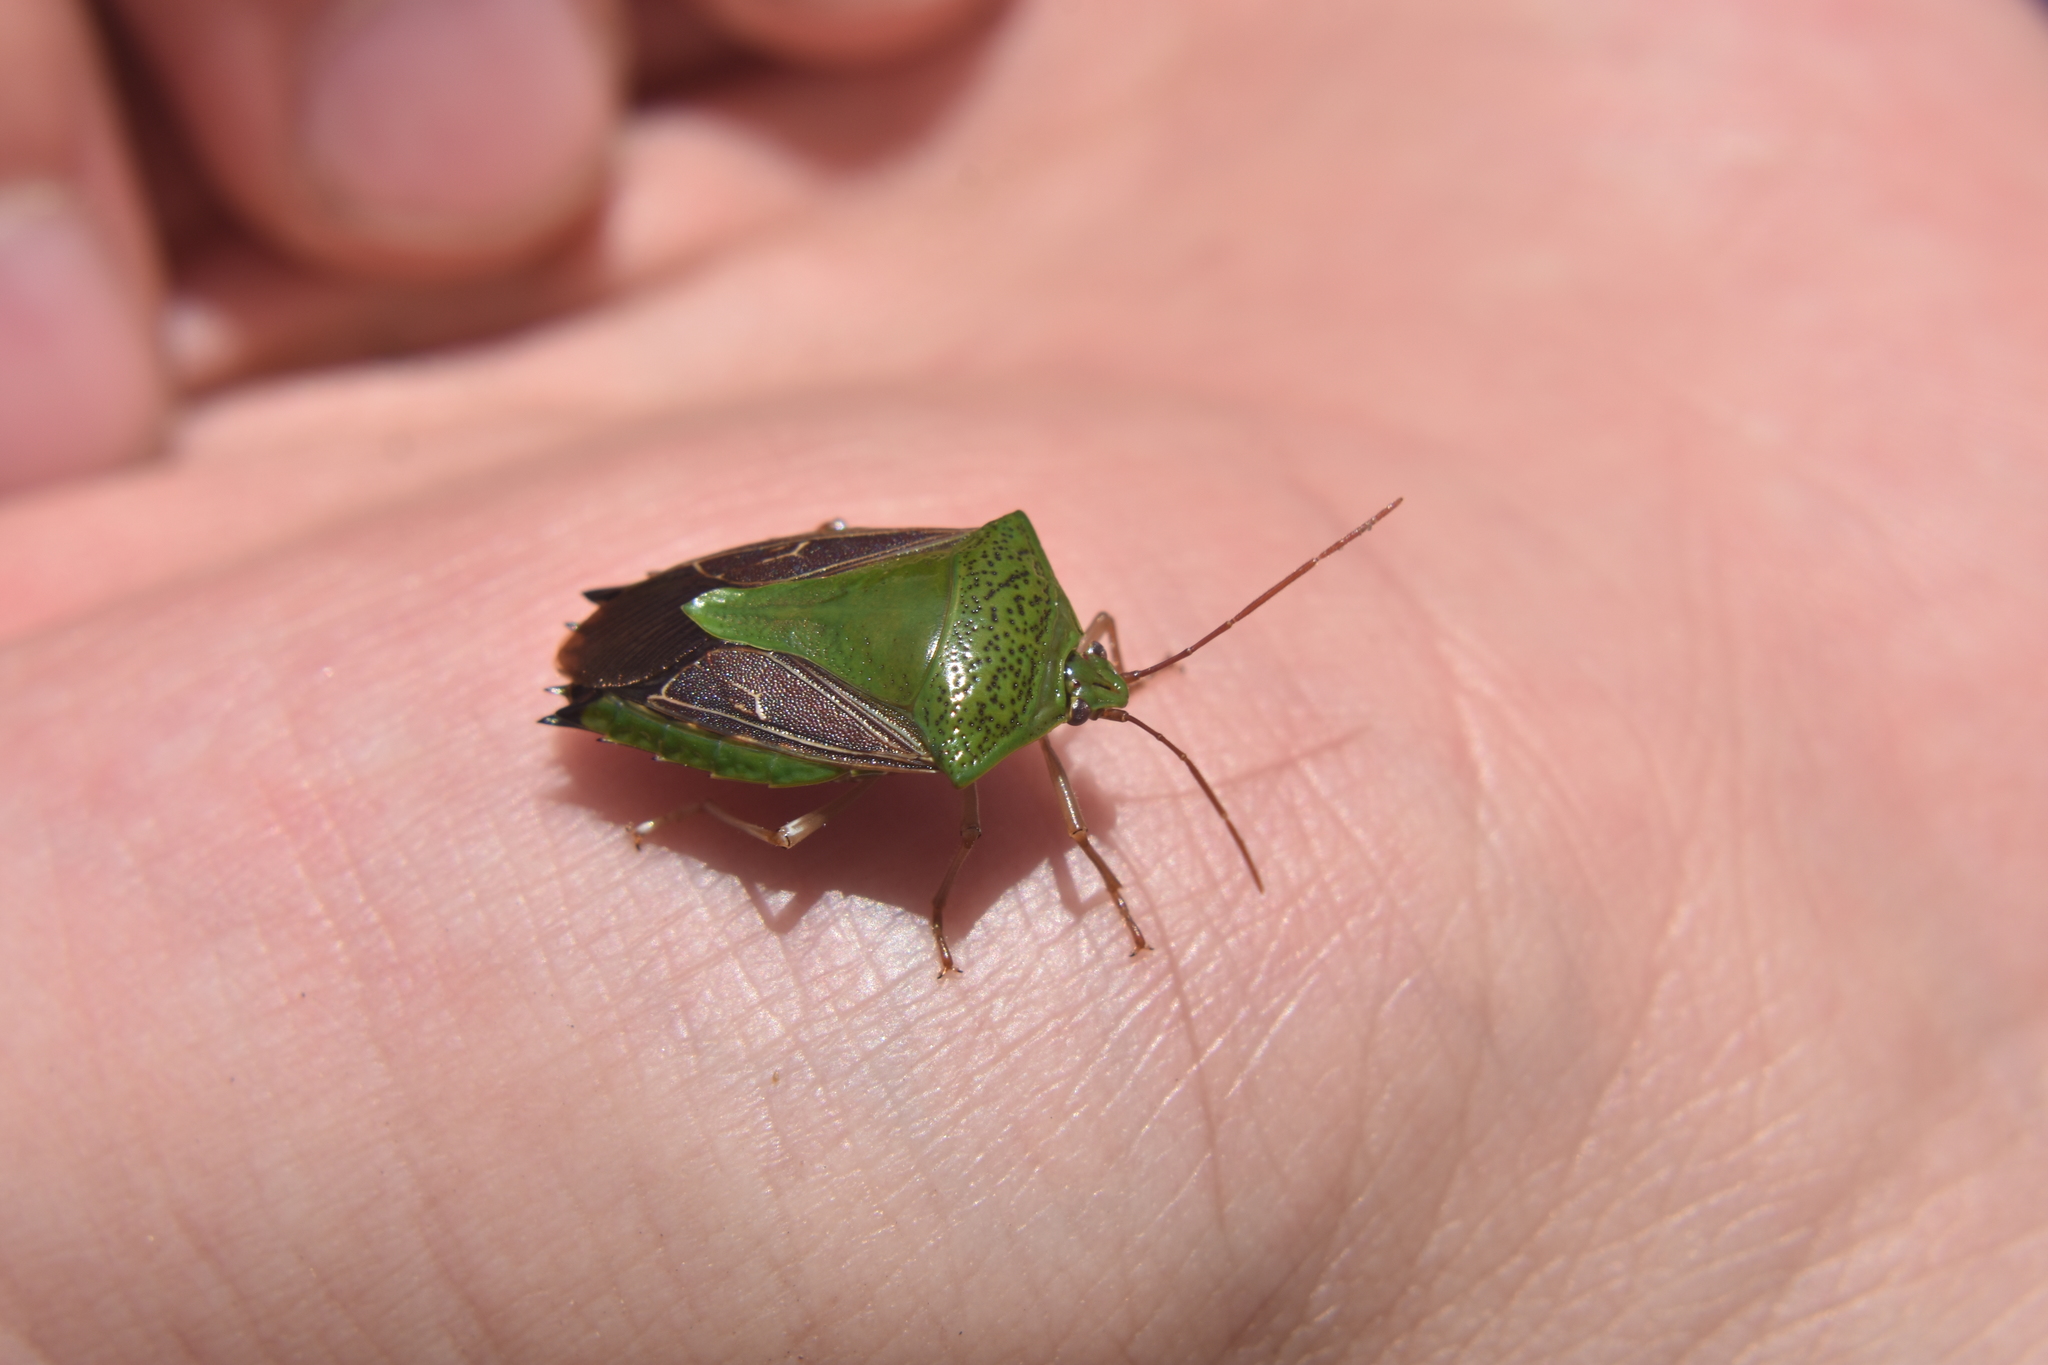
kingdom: Animalia
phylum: Arthropoda
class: Insecta
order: Hemiptera
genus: Pygoda
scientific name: Pygoda
